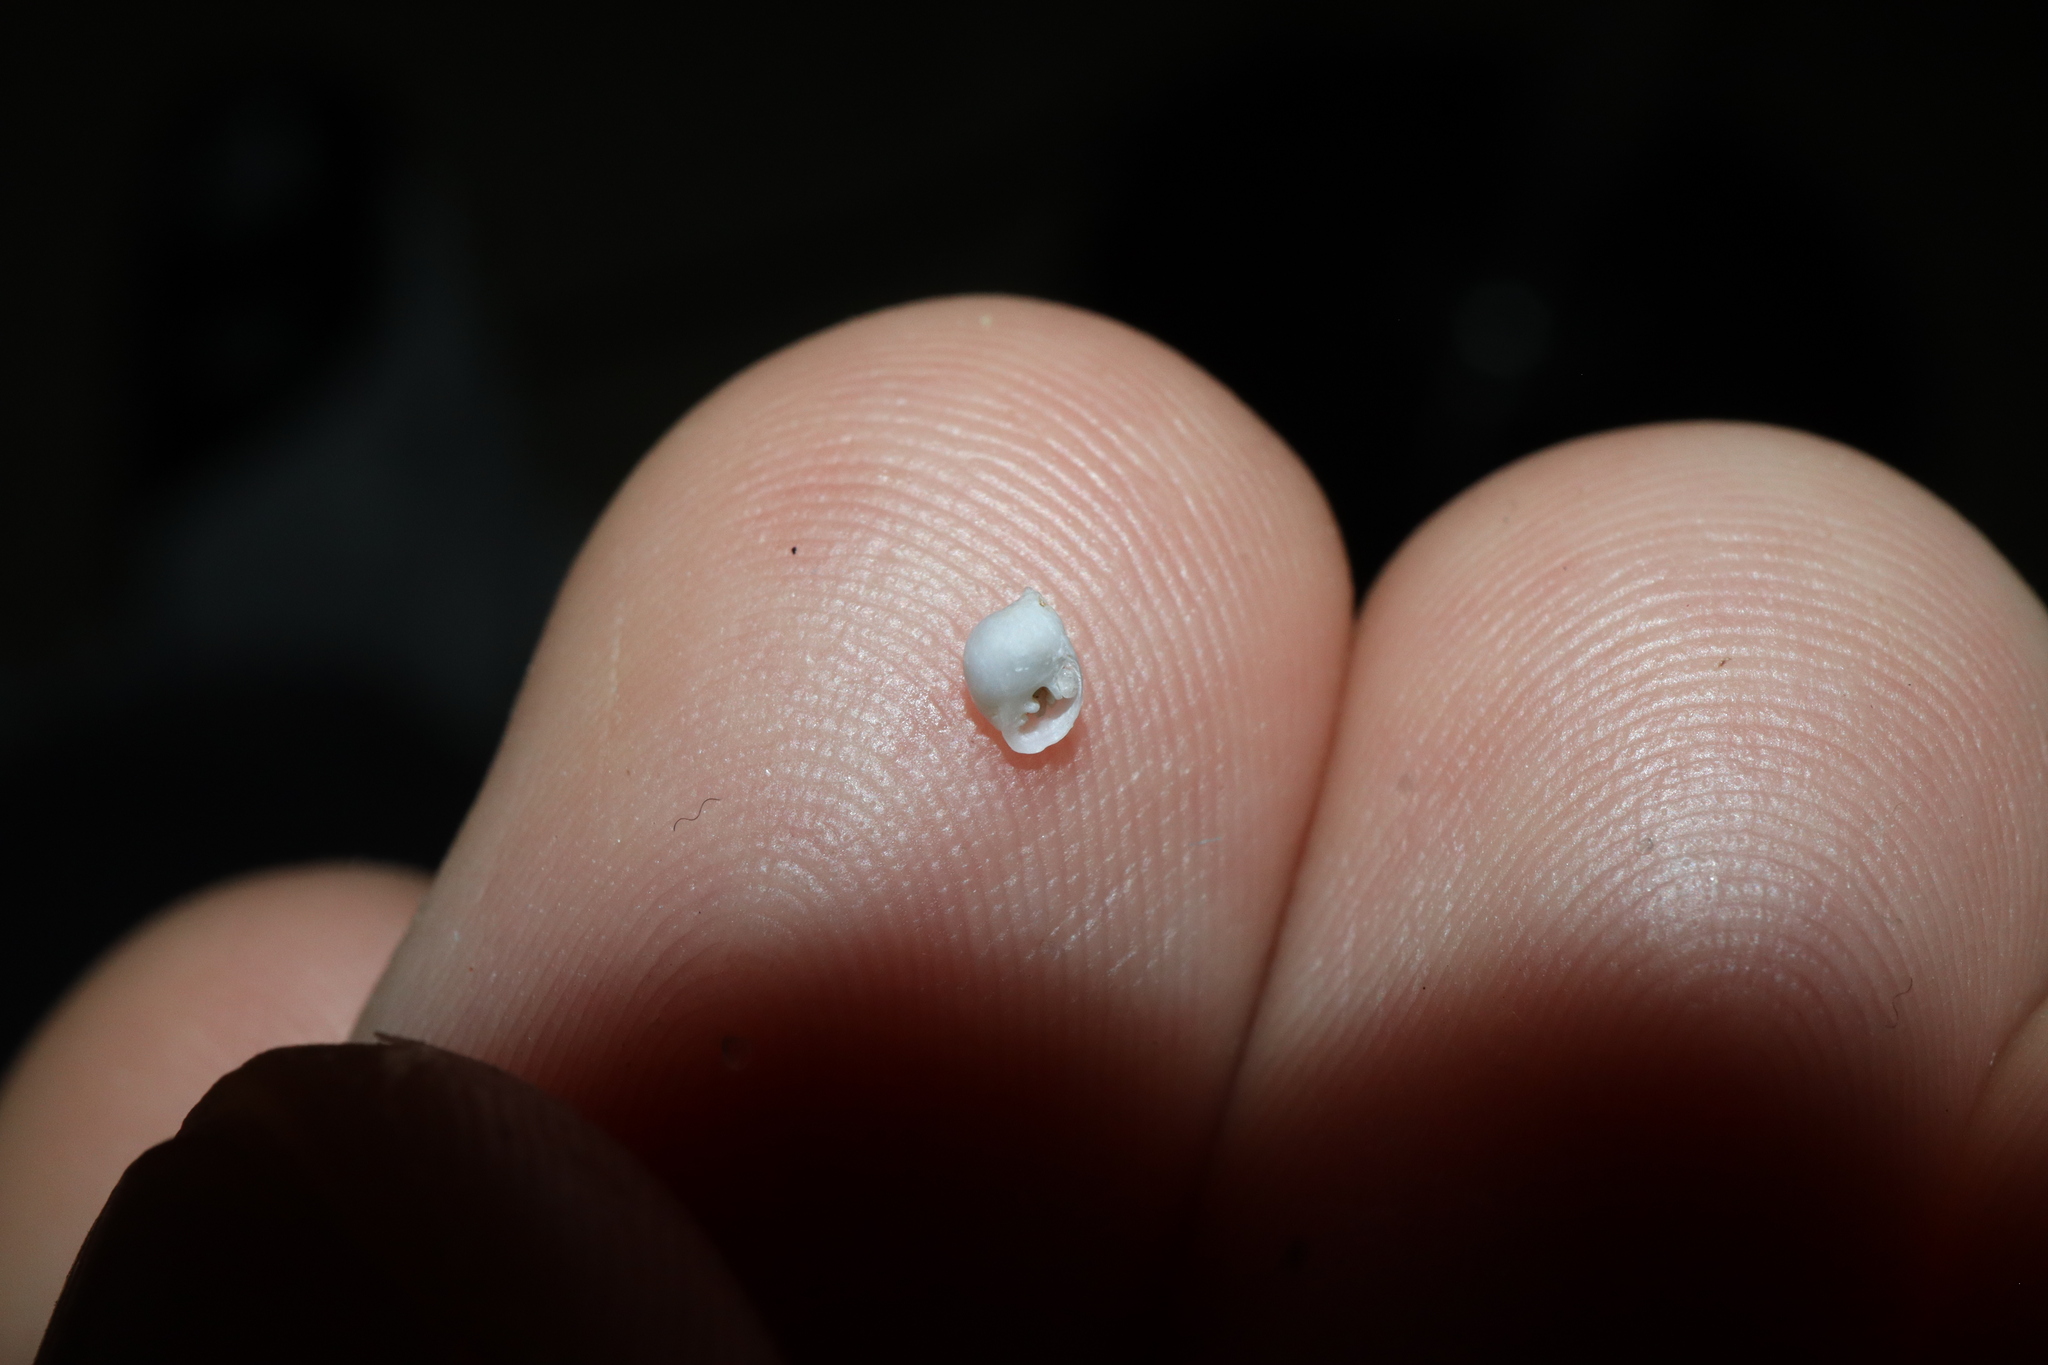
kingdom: Animalia
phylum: Mollusca
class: Gastropoda
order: Ellobiida
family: Ellobiidae
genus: Marinula
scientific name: Marinula xanthostoma
